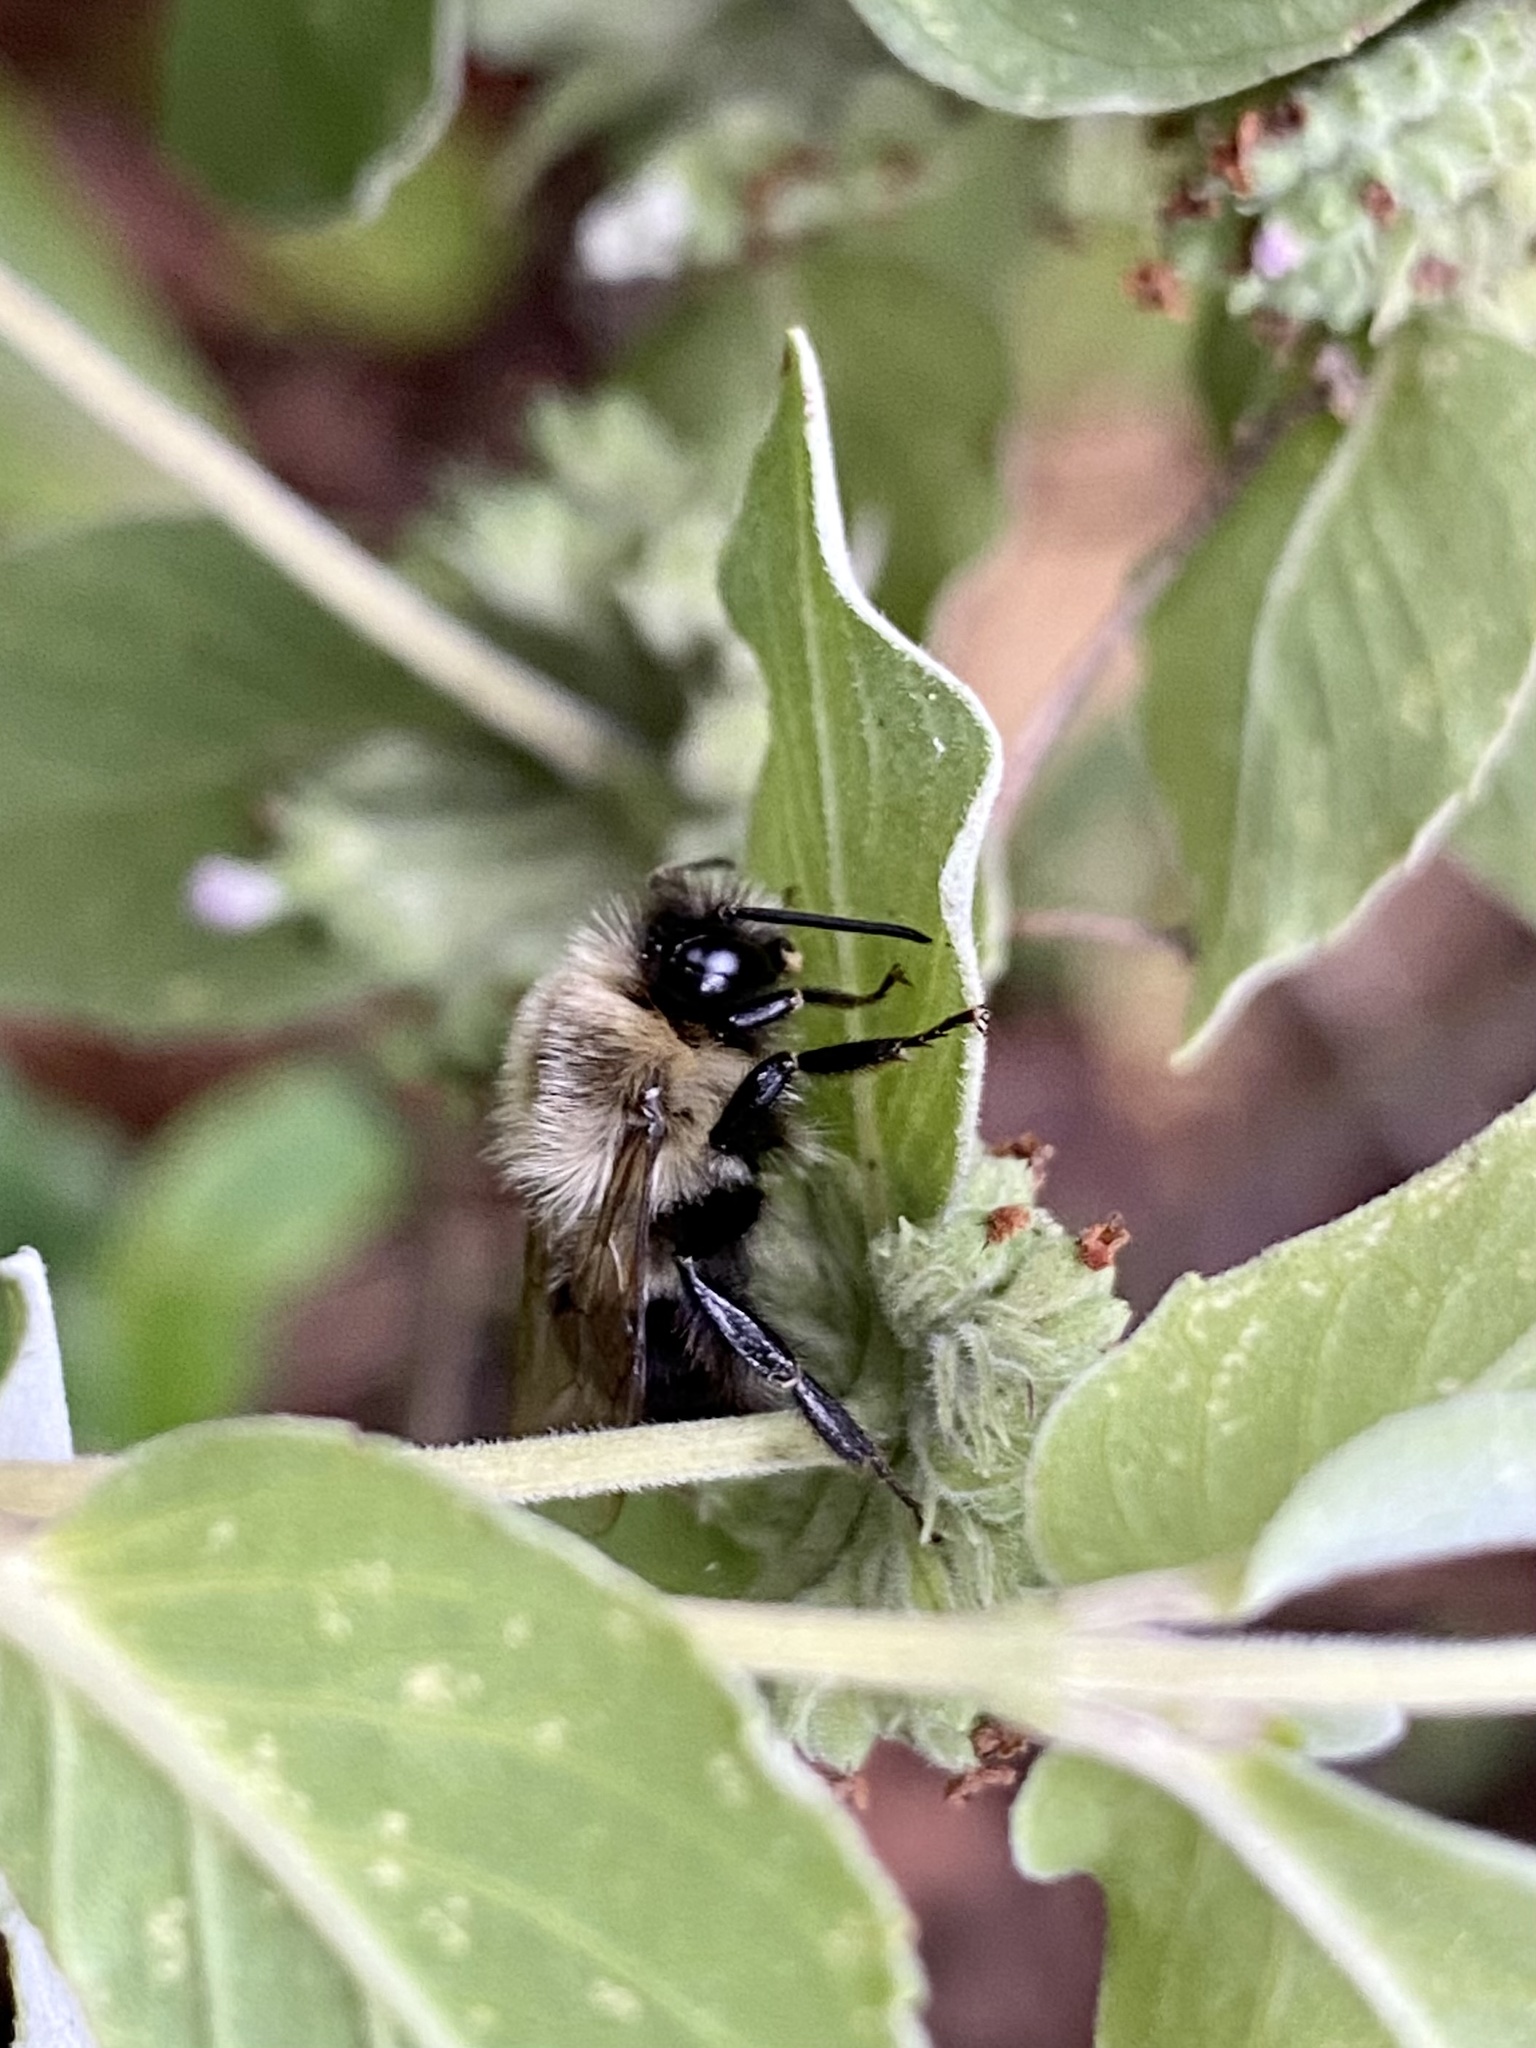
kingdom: Animalia
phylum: Arthropoda
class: Insecta
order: Hymenoptera
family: Apidae
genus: Bombus
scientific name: Bombus impatiens
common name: Common eastern bumble bee
